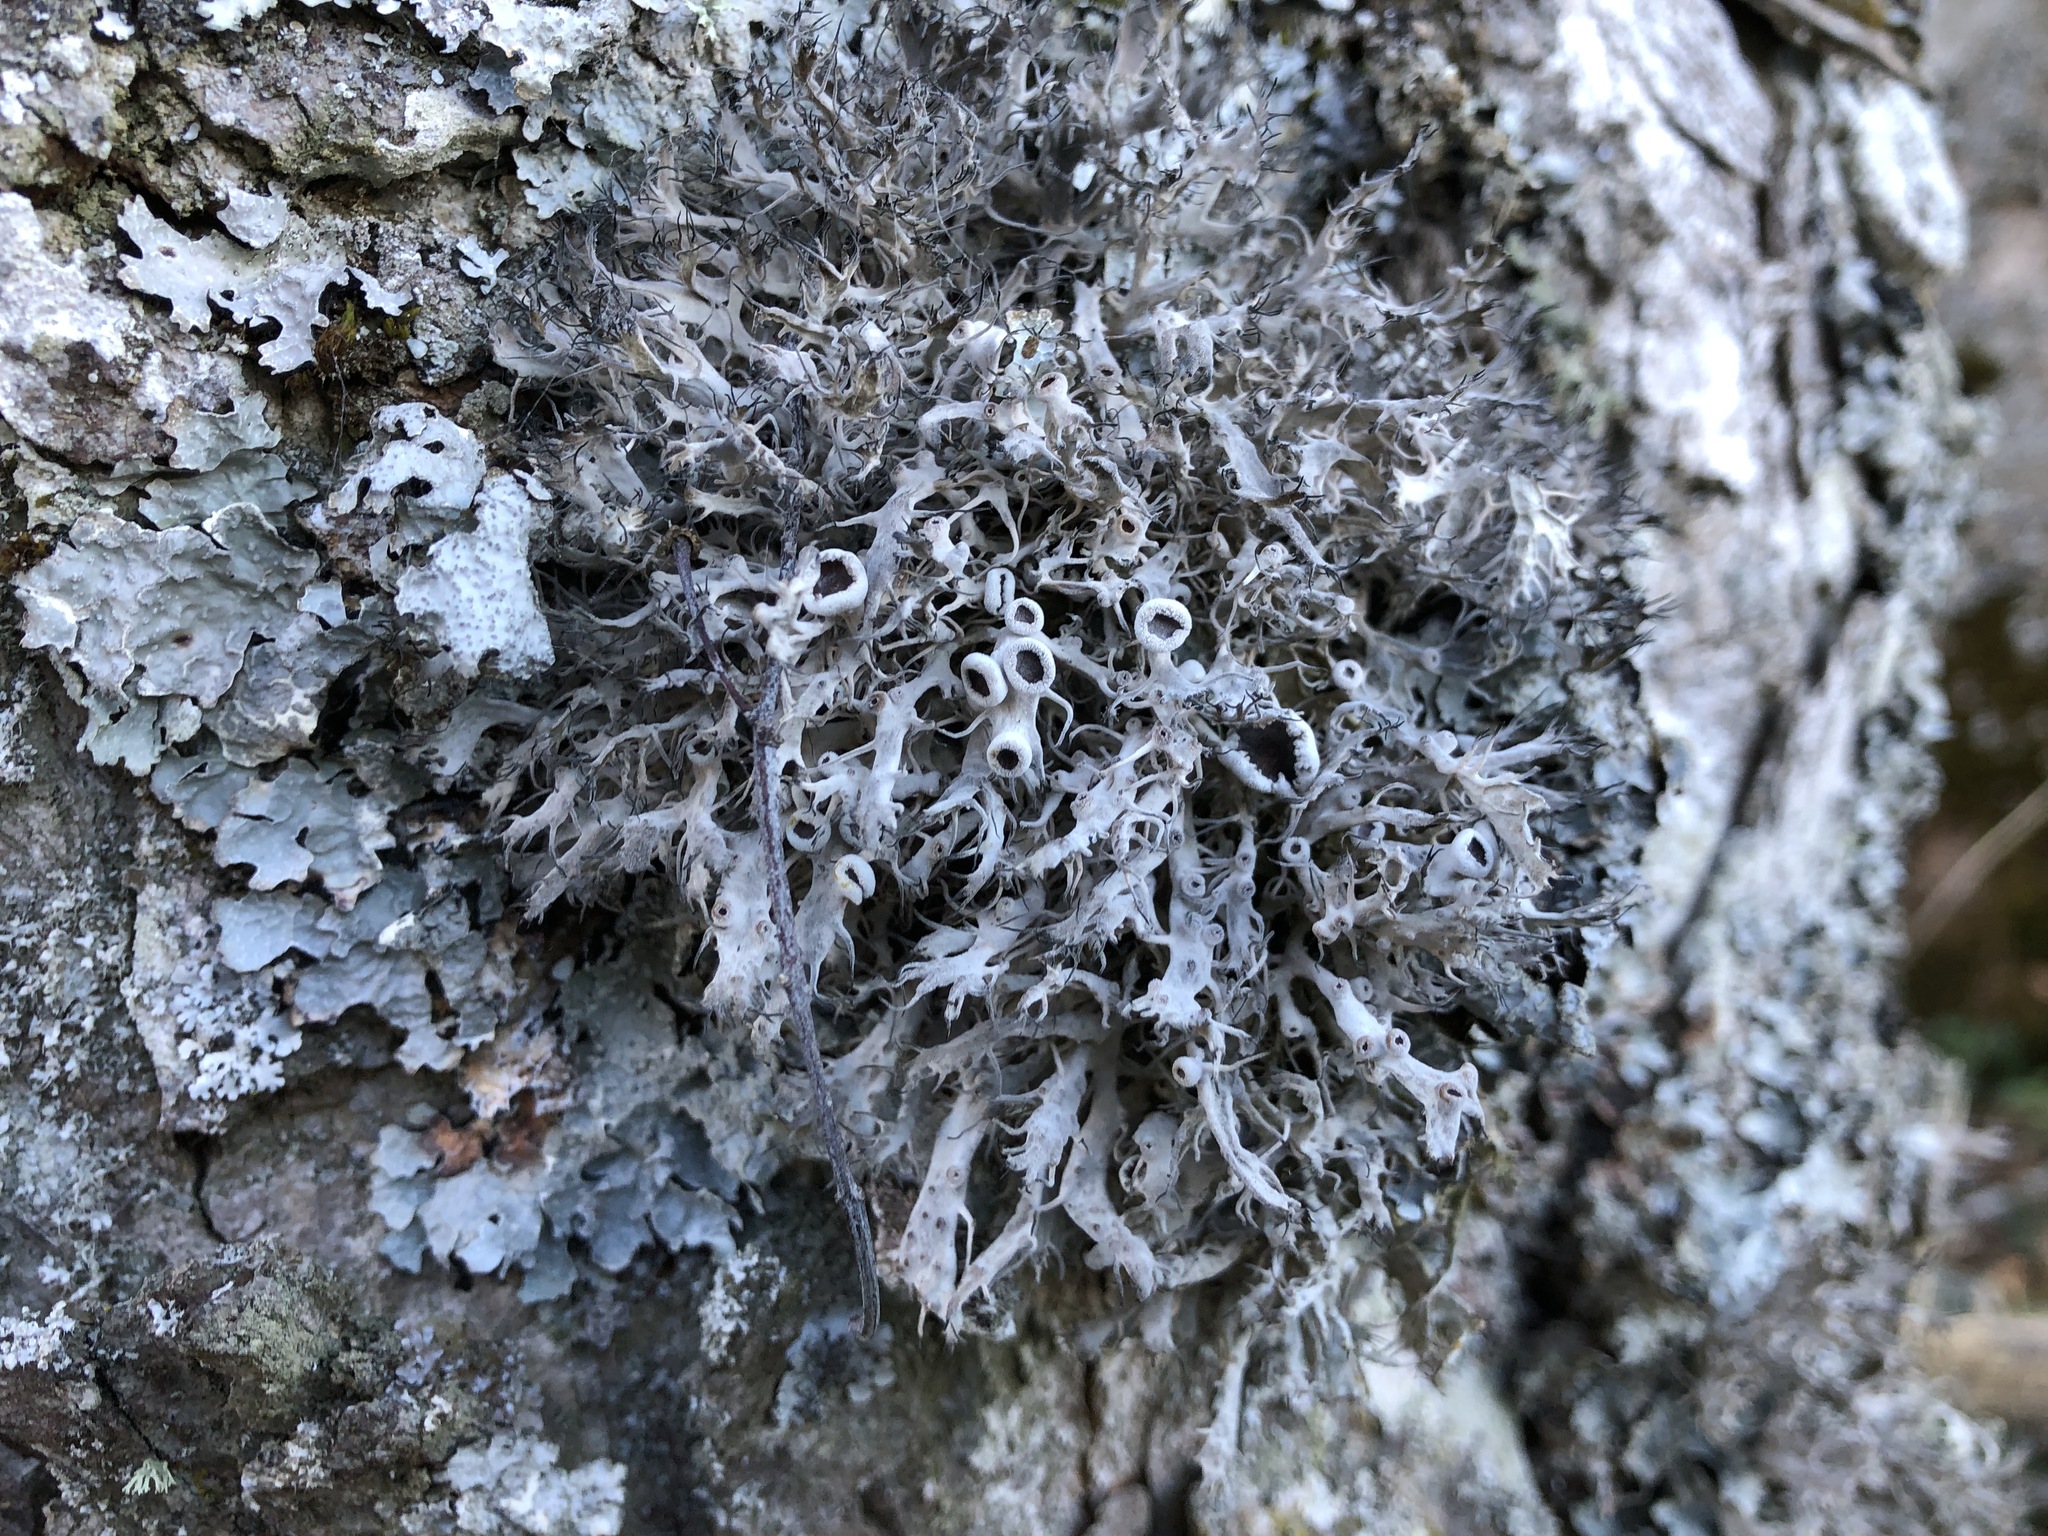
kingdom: Fungi
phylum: Ascomycota
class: Lecanoromycetes
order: Caliciales
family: Physciaceae
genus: Anaptychia
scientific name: Anaptychia ciliaris
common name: Great ciliated lichen
